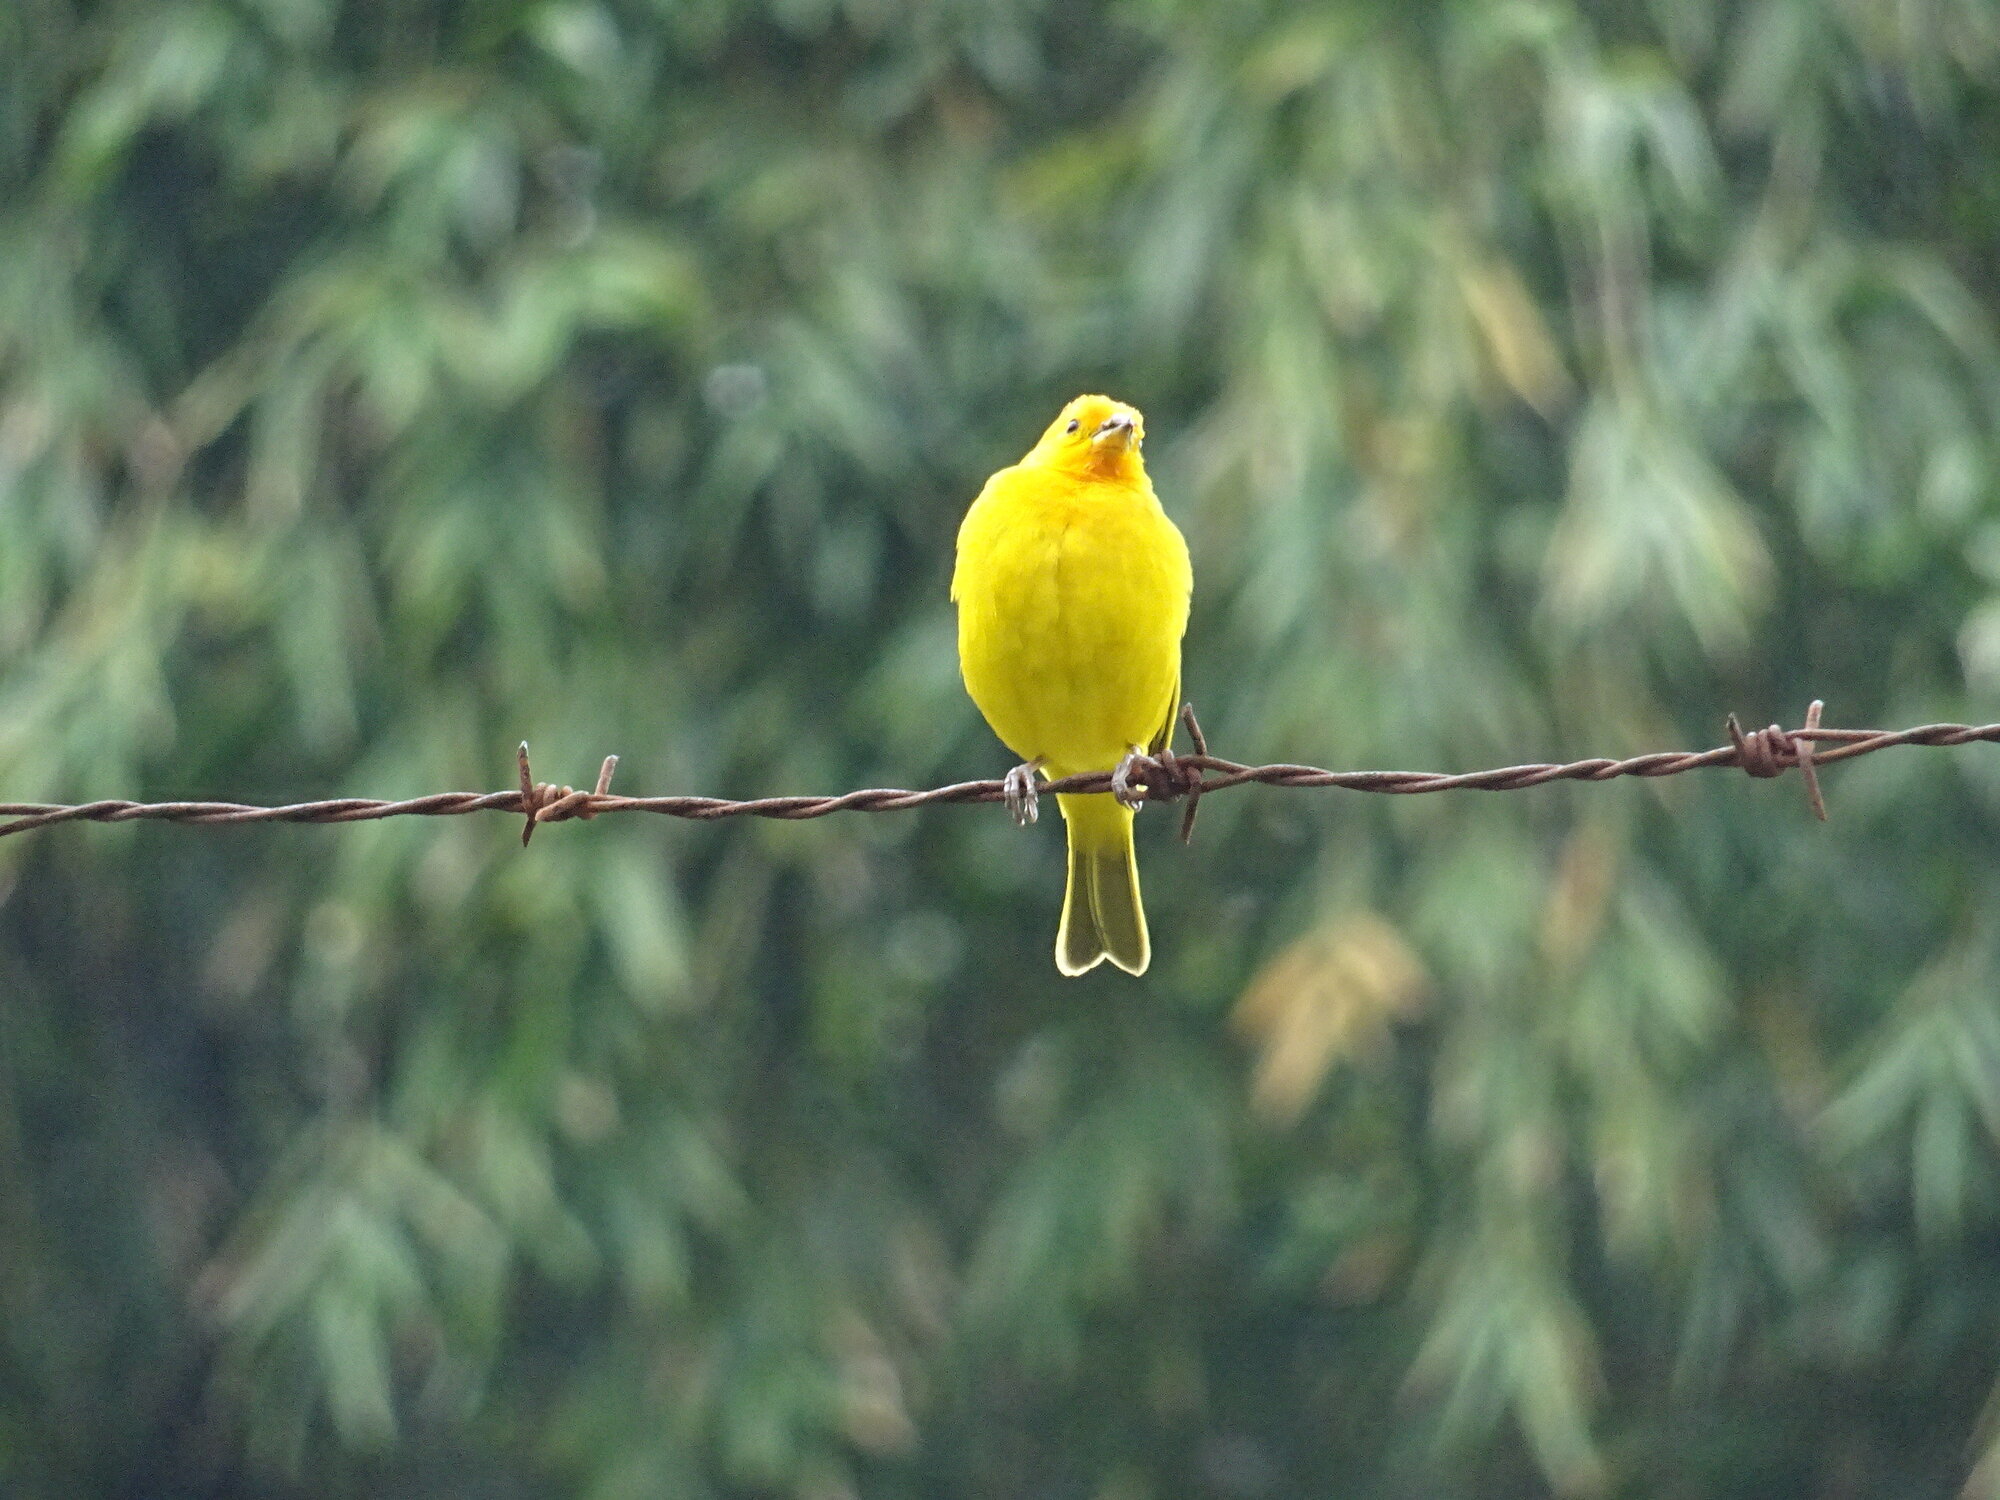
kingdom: Animalia
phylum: Chordata
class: Aves
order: Passeriformes
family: Thraupidae
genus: Sicalis
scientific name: Sicalis flaveola
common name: Saffron finch
